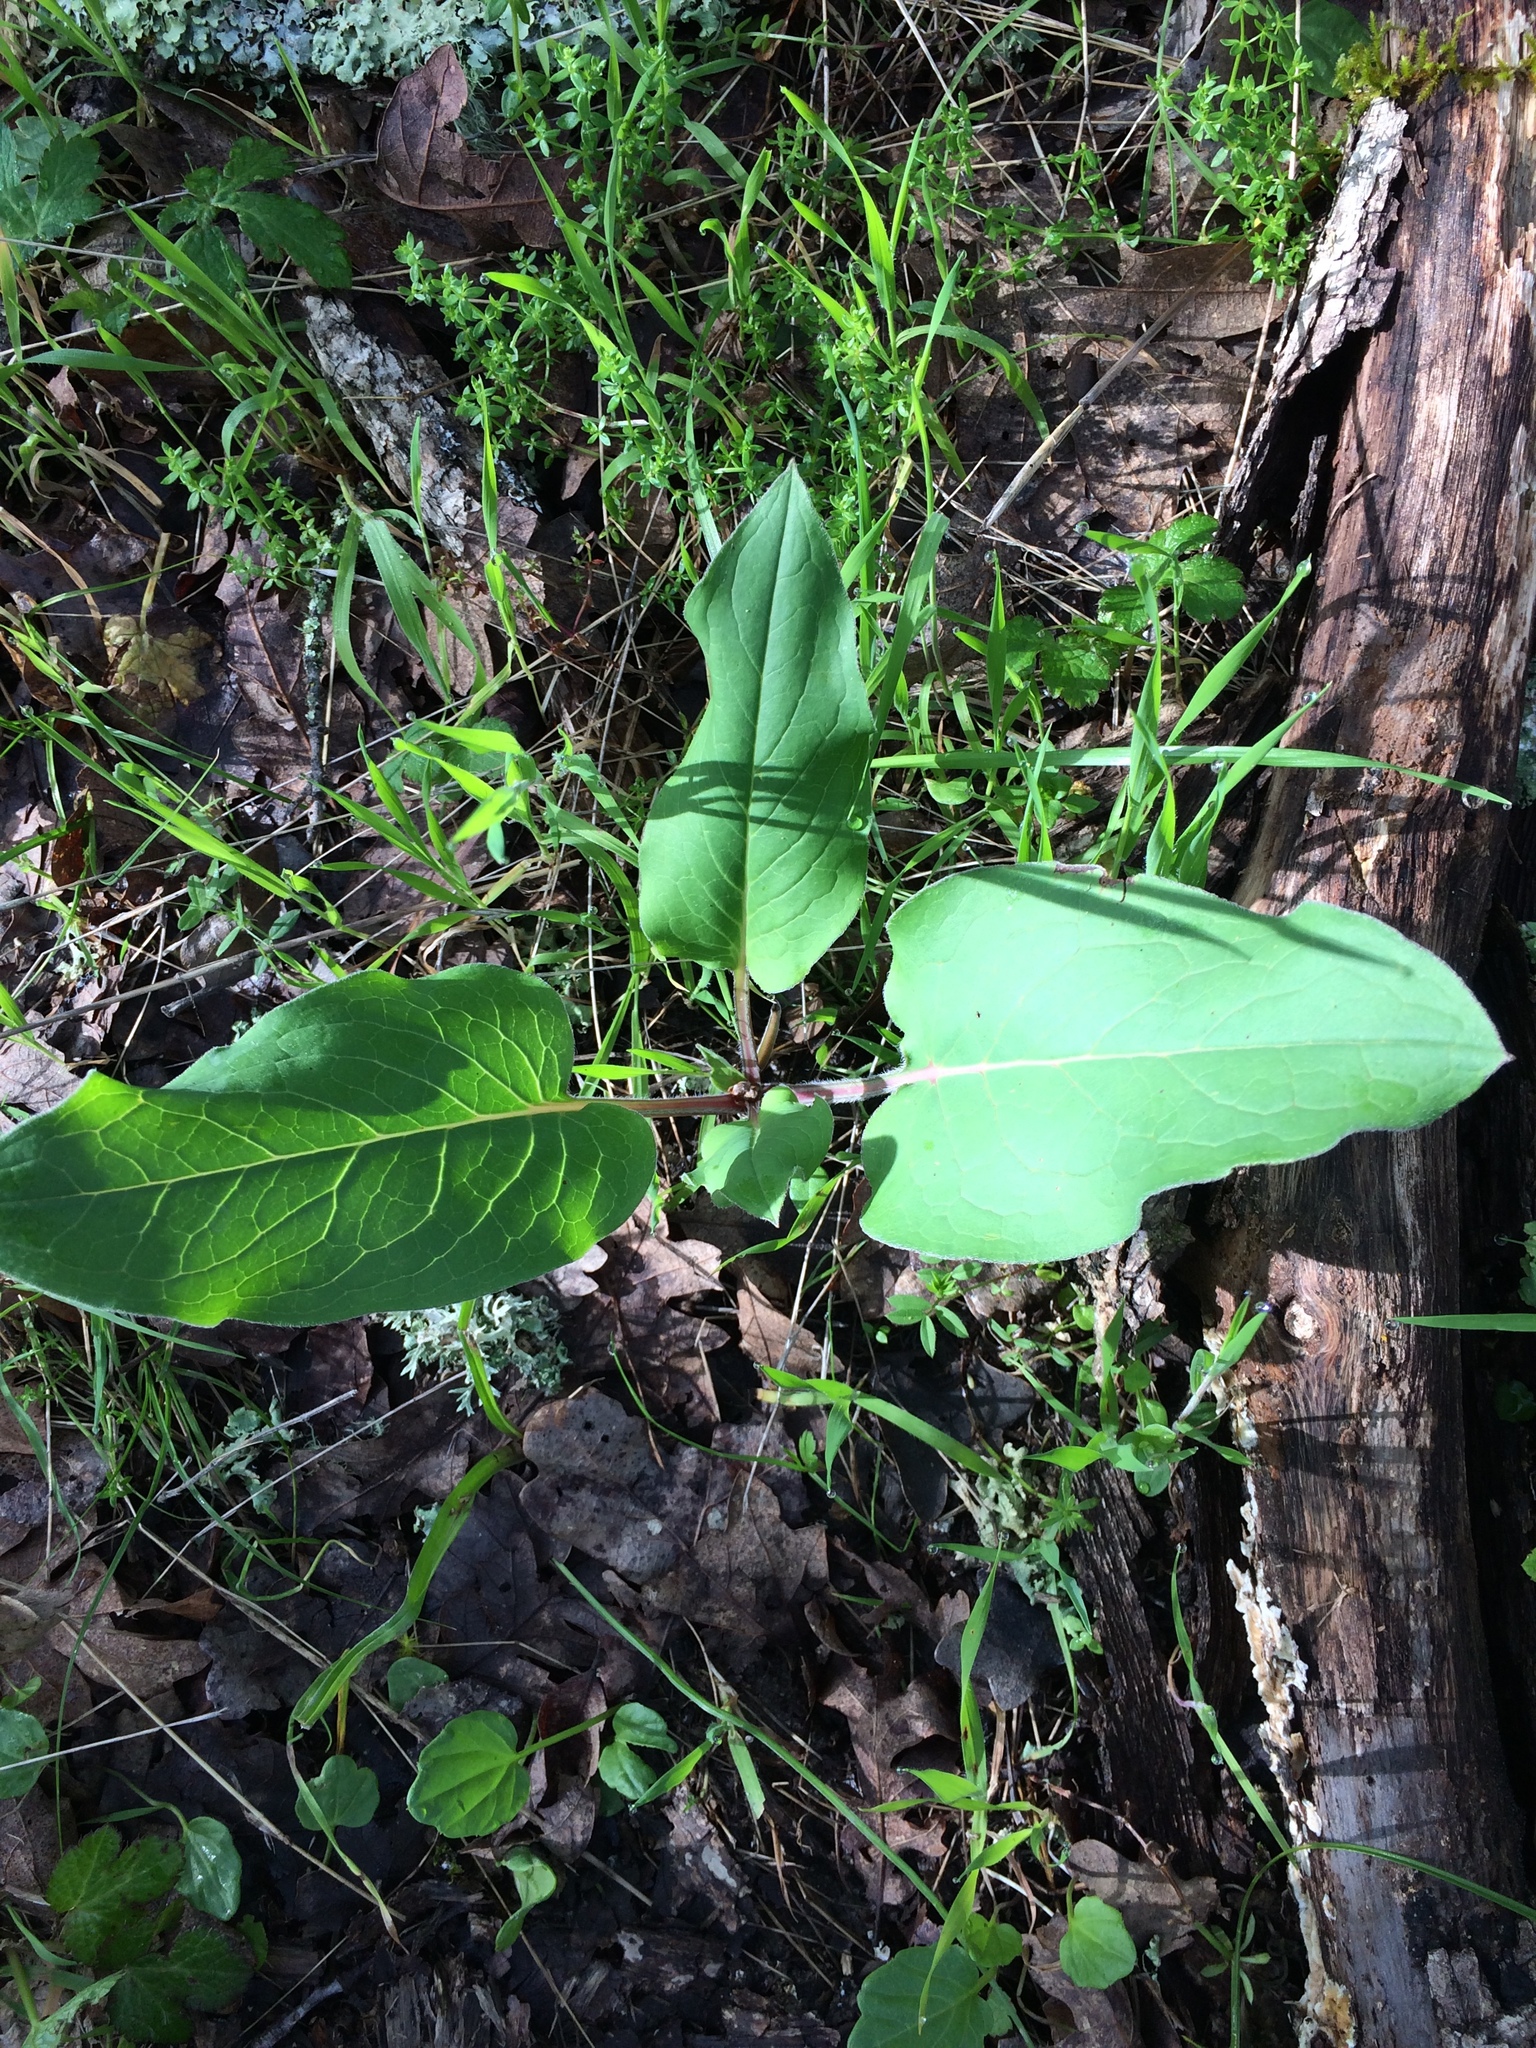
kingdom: Plantae
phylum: Tracheophyta
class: Magnoliopsida
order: Boraginales
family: Boraginaceae
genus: Adelinia
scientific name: Adelinia grande
